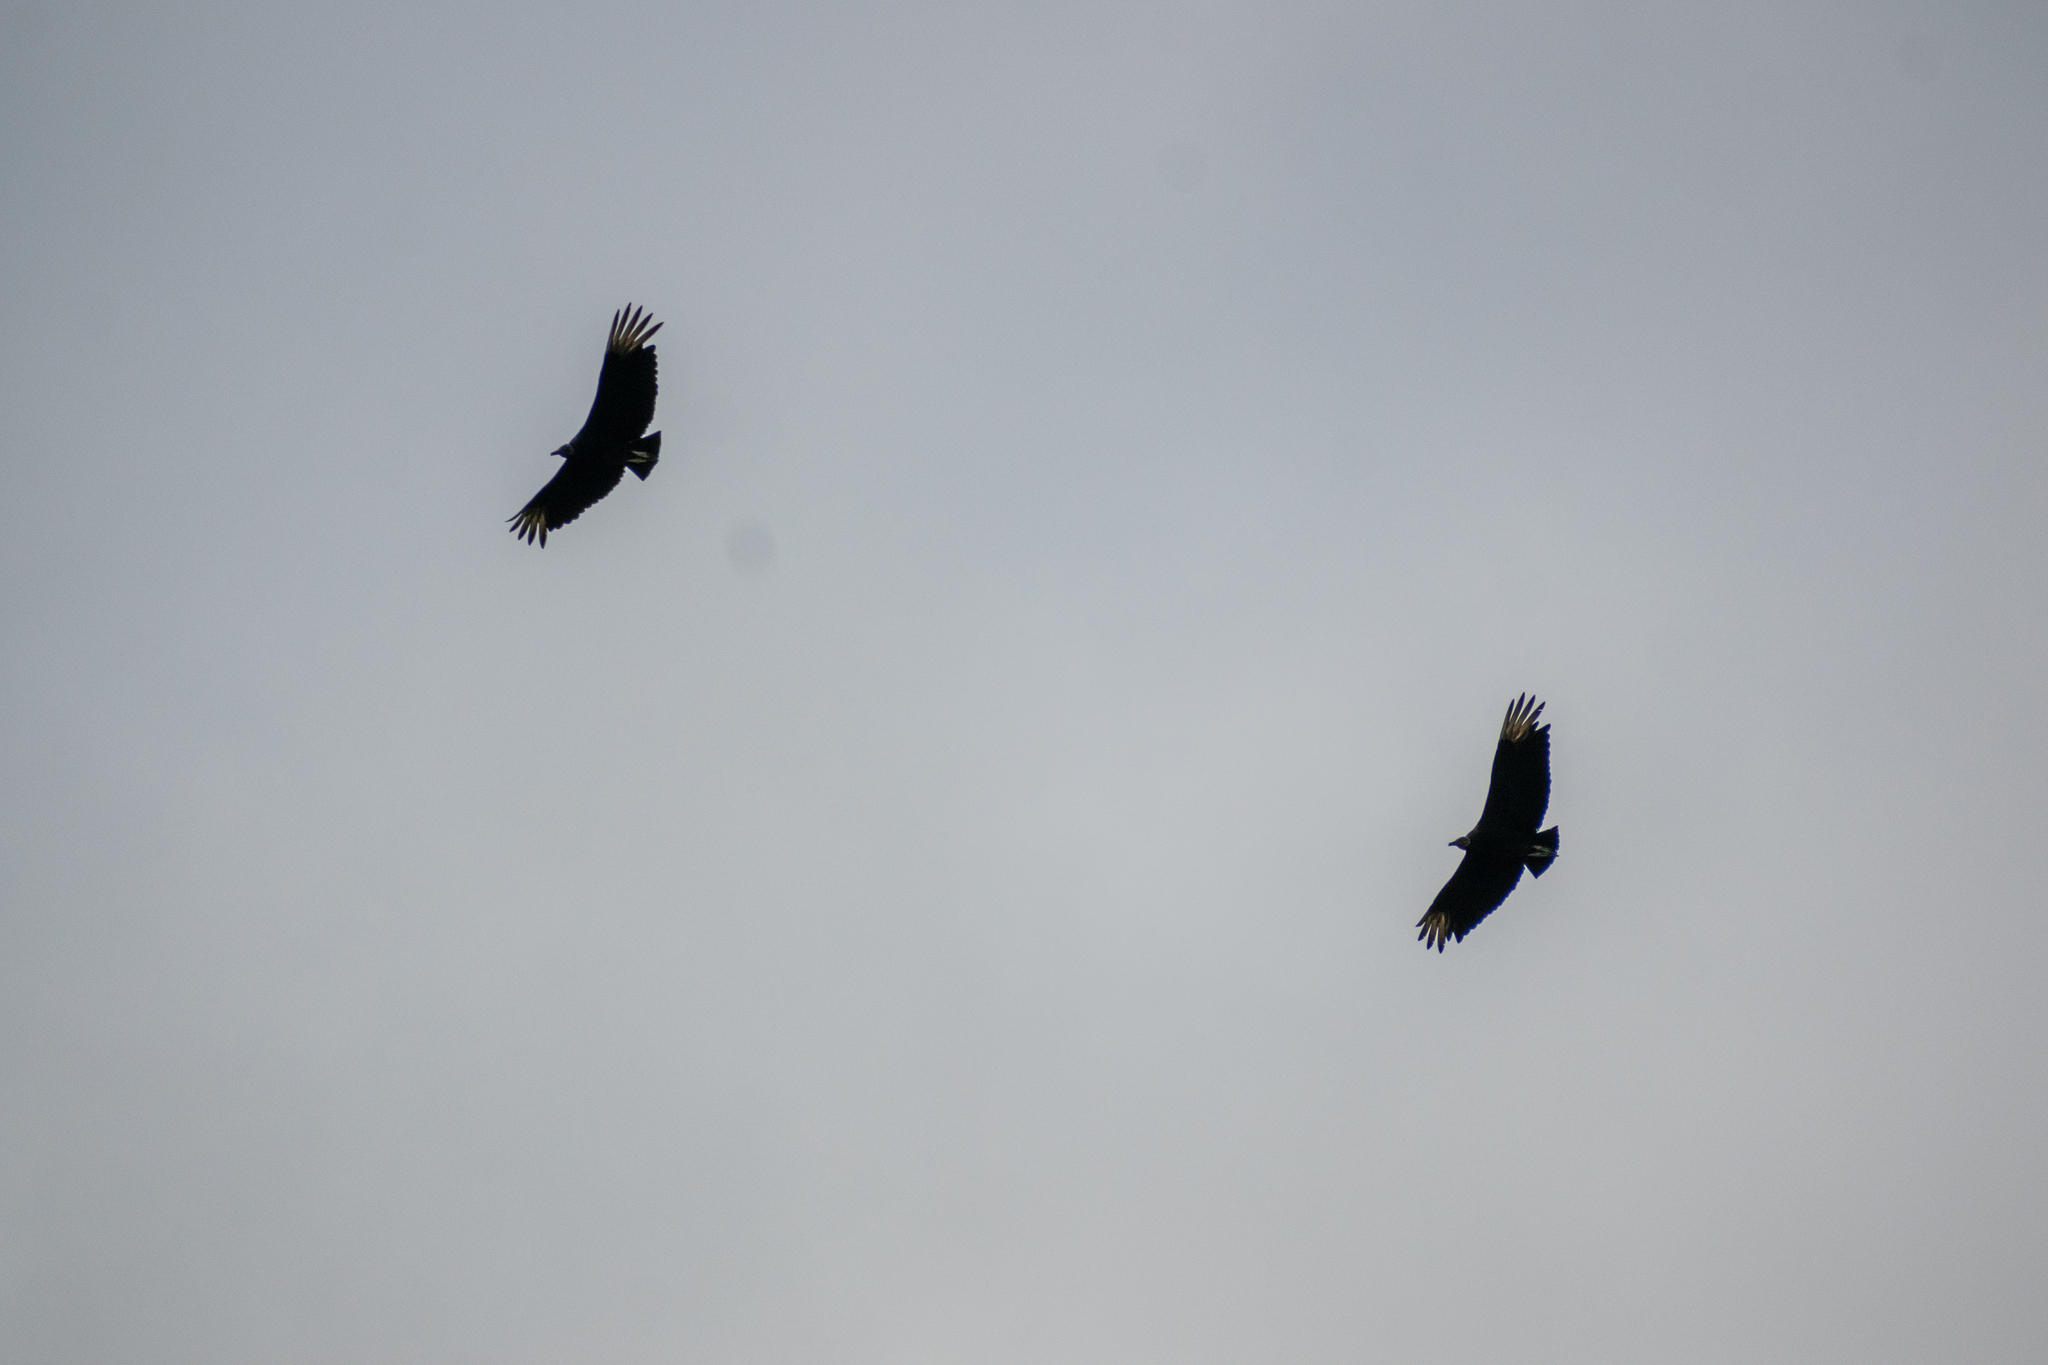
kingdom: Animalia
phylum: Chordata
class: Aves
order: Accipitriformes
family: Cathartidae
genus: Coragyps
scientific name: Coragyps atratus
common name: Black vulture
